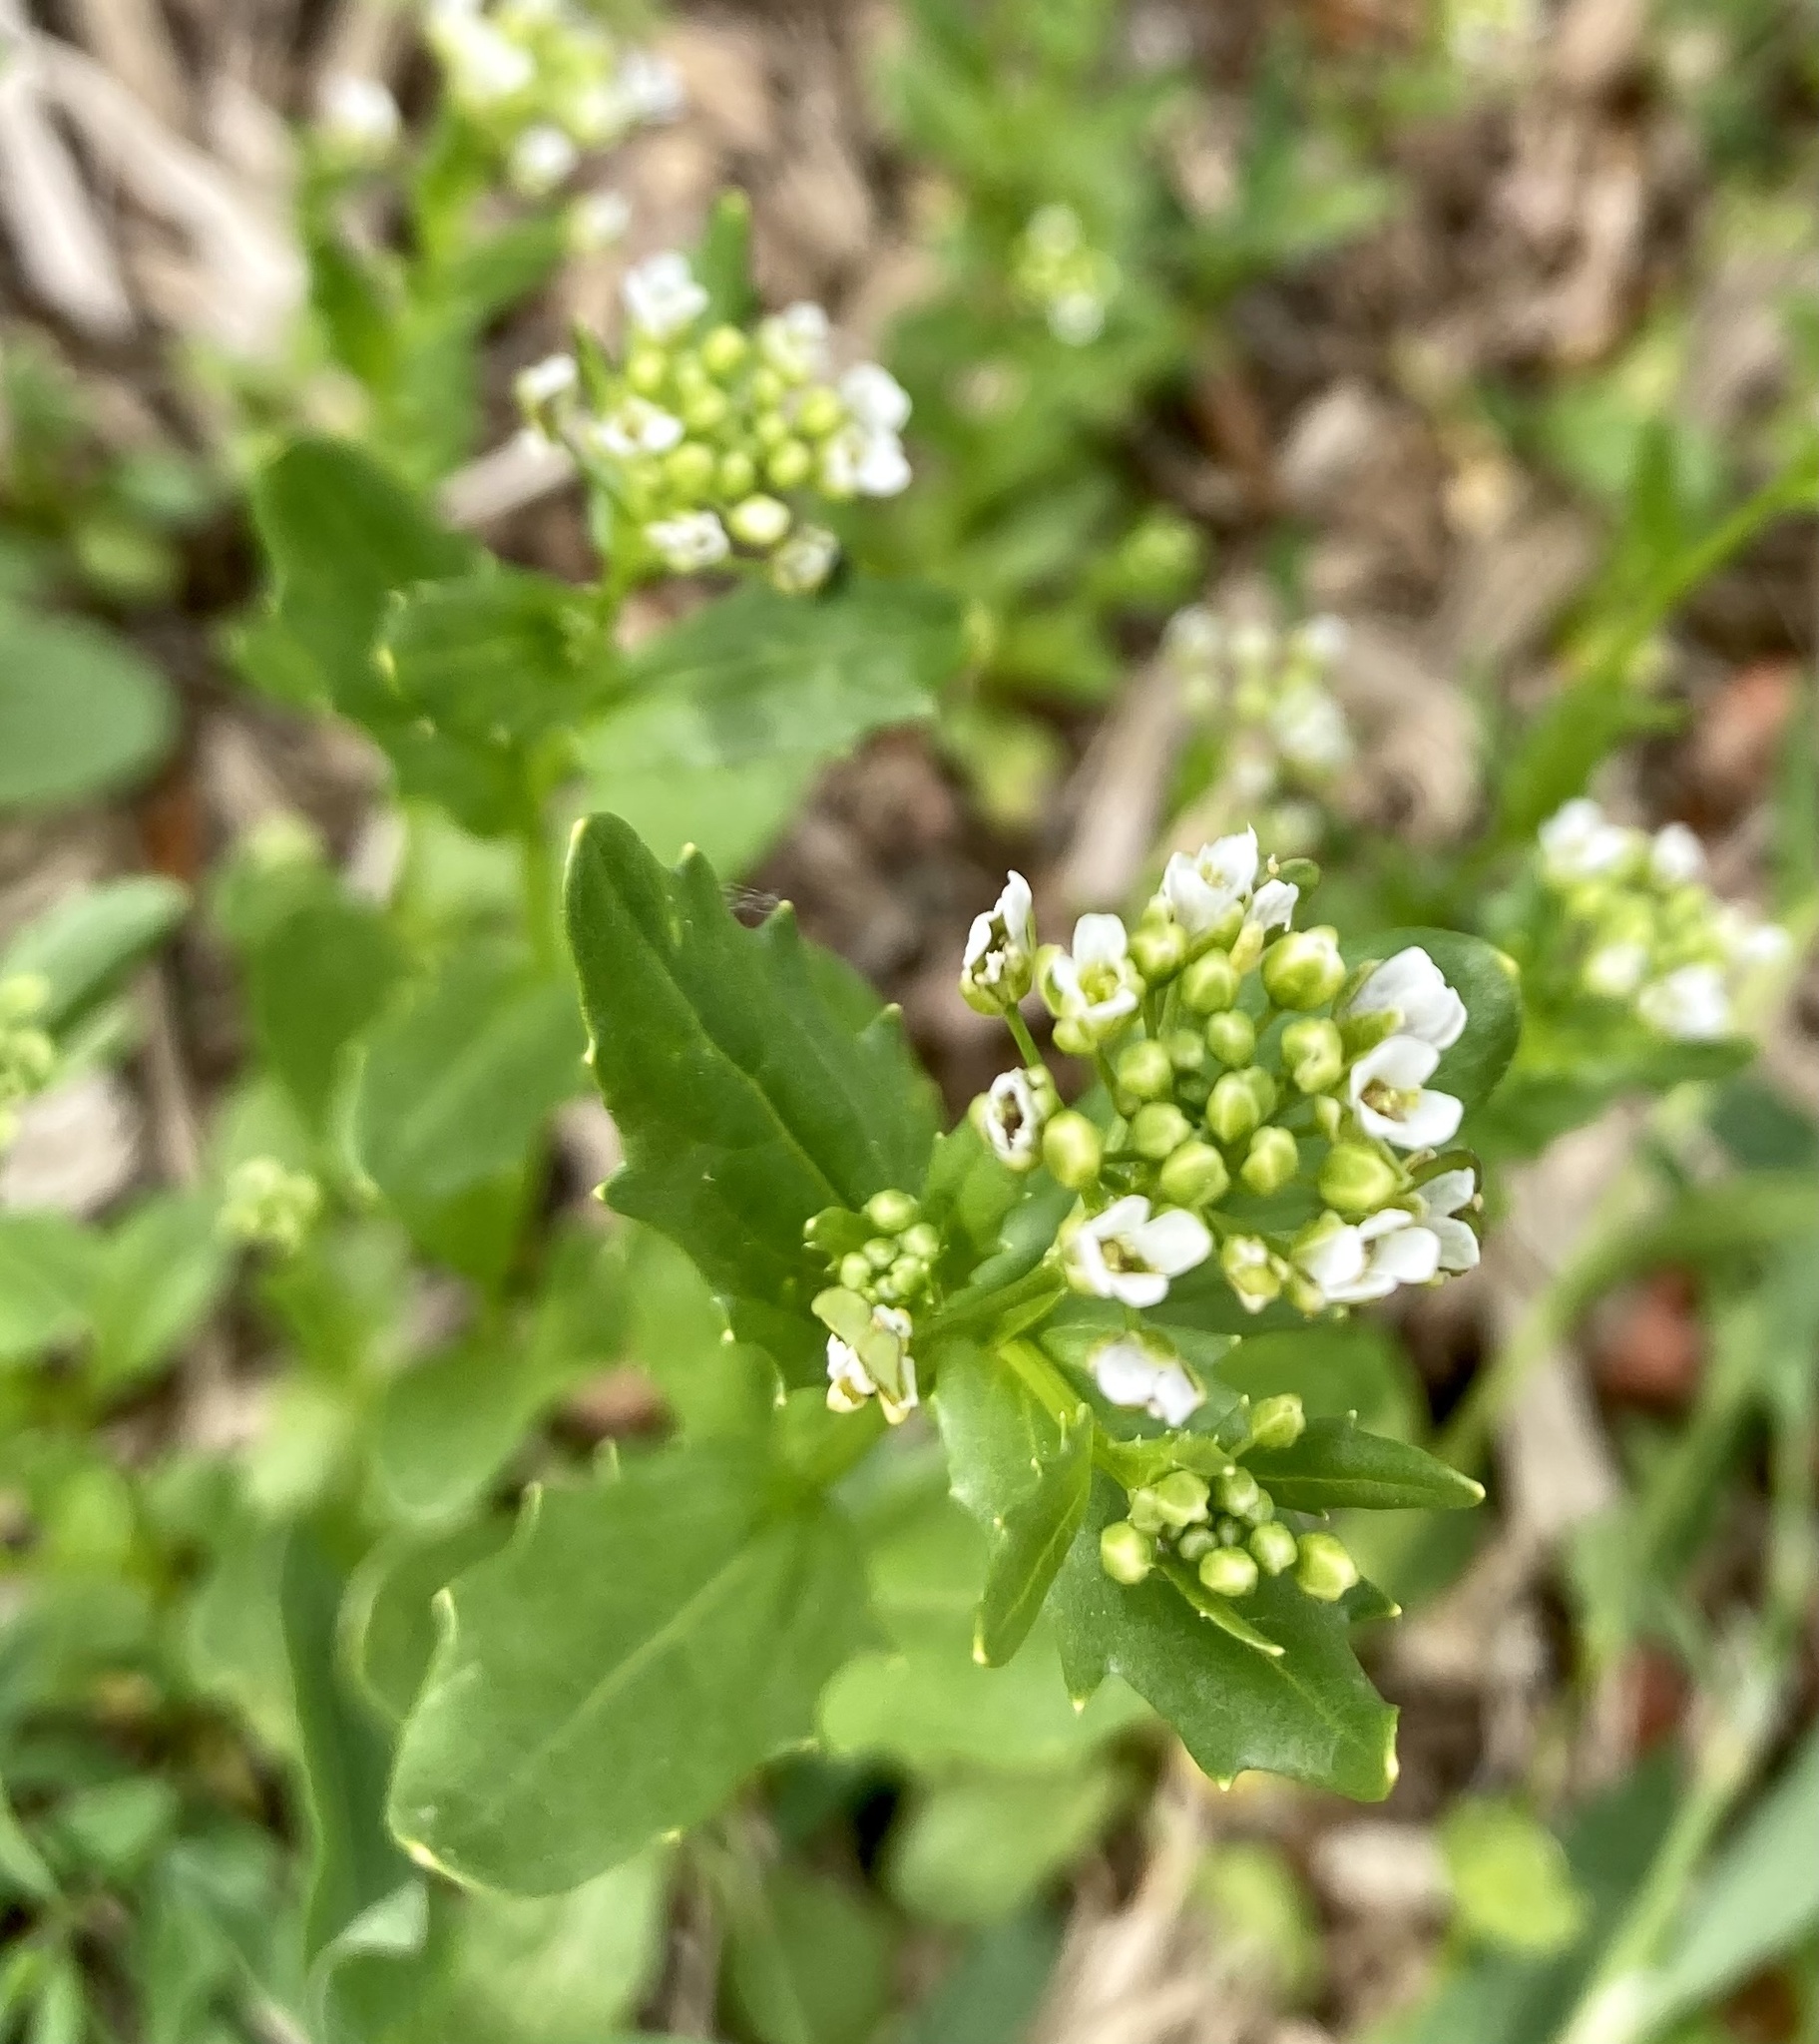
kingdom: Plantae
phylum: Tracheophyta
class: Magnoliopsida
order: Brassicales
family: Brassicaceae
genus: Thlaspi
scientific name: Thlaspi arvense
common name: Field pennycress
